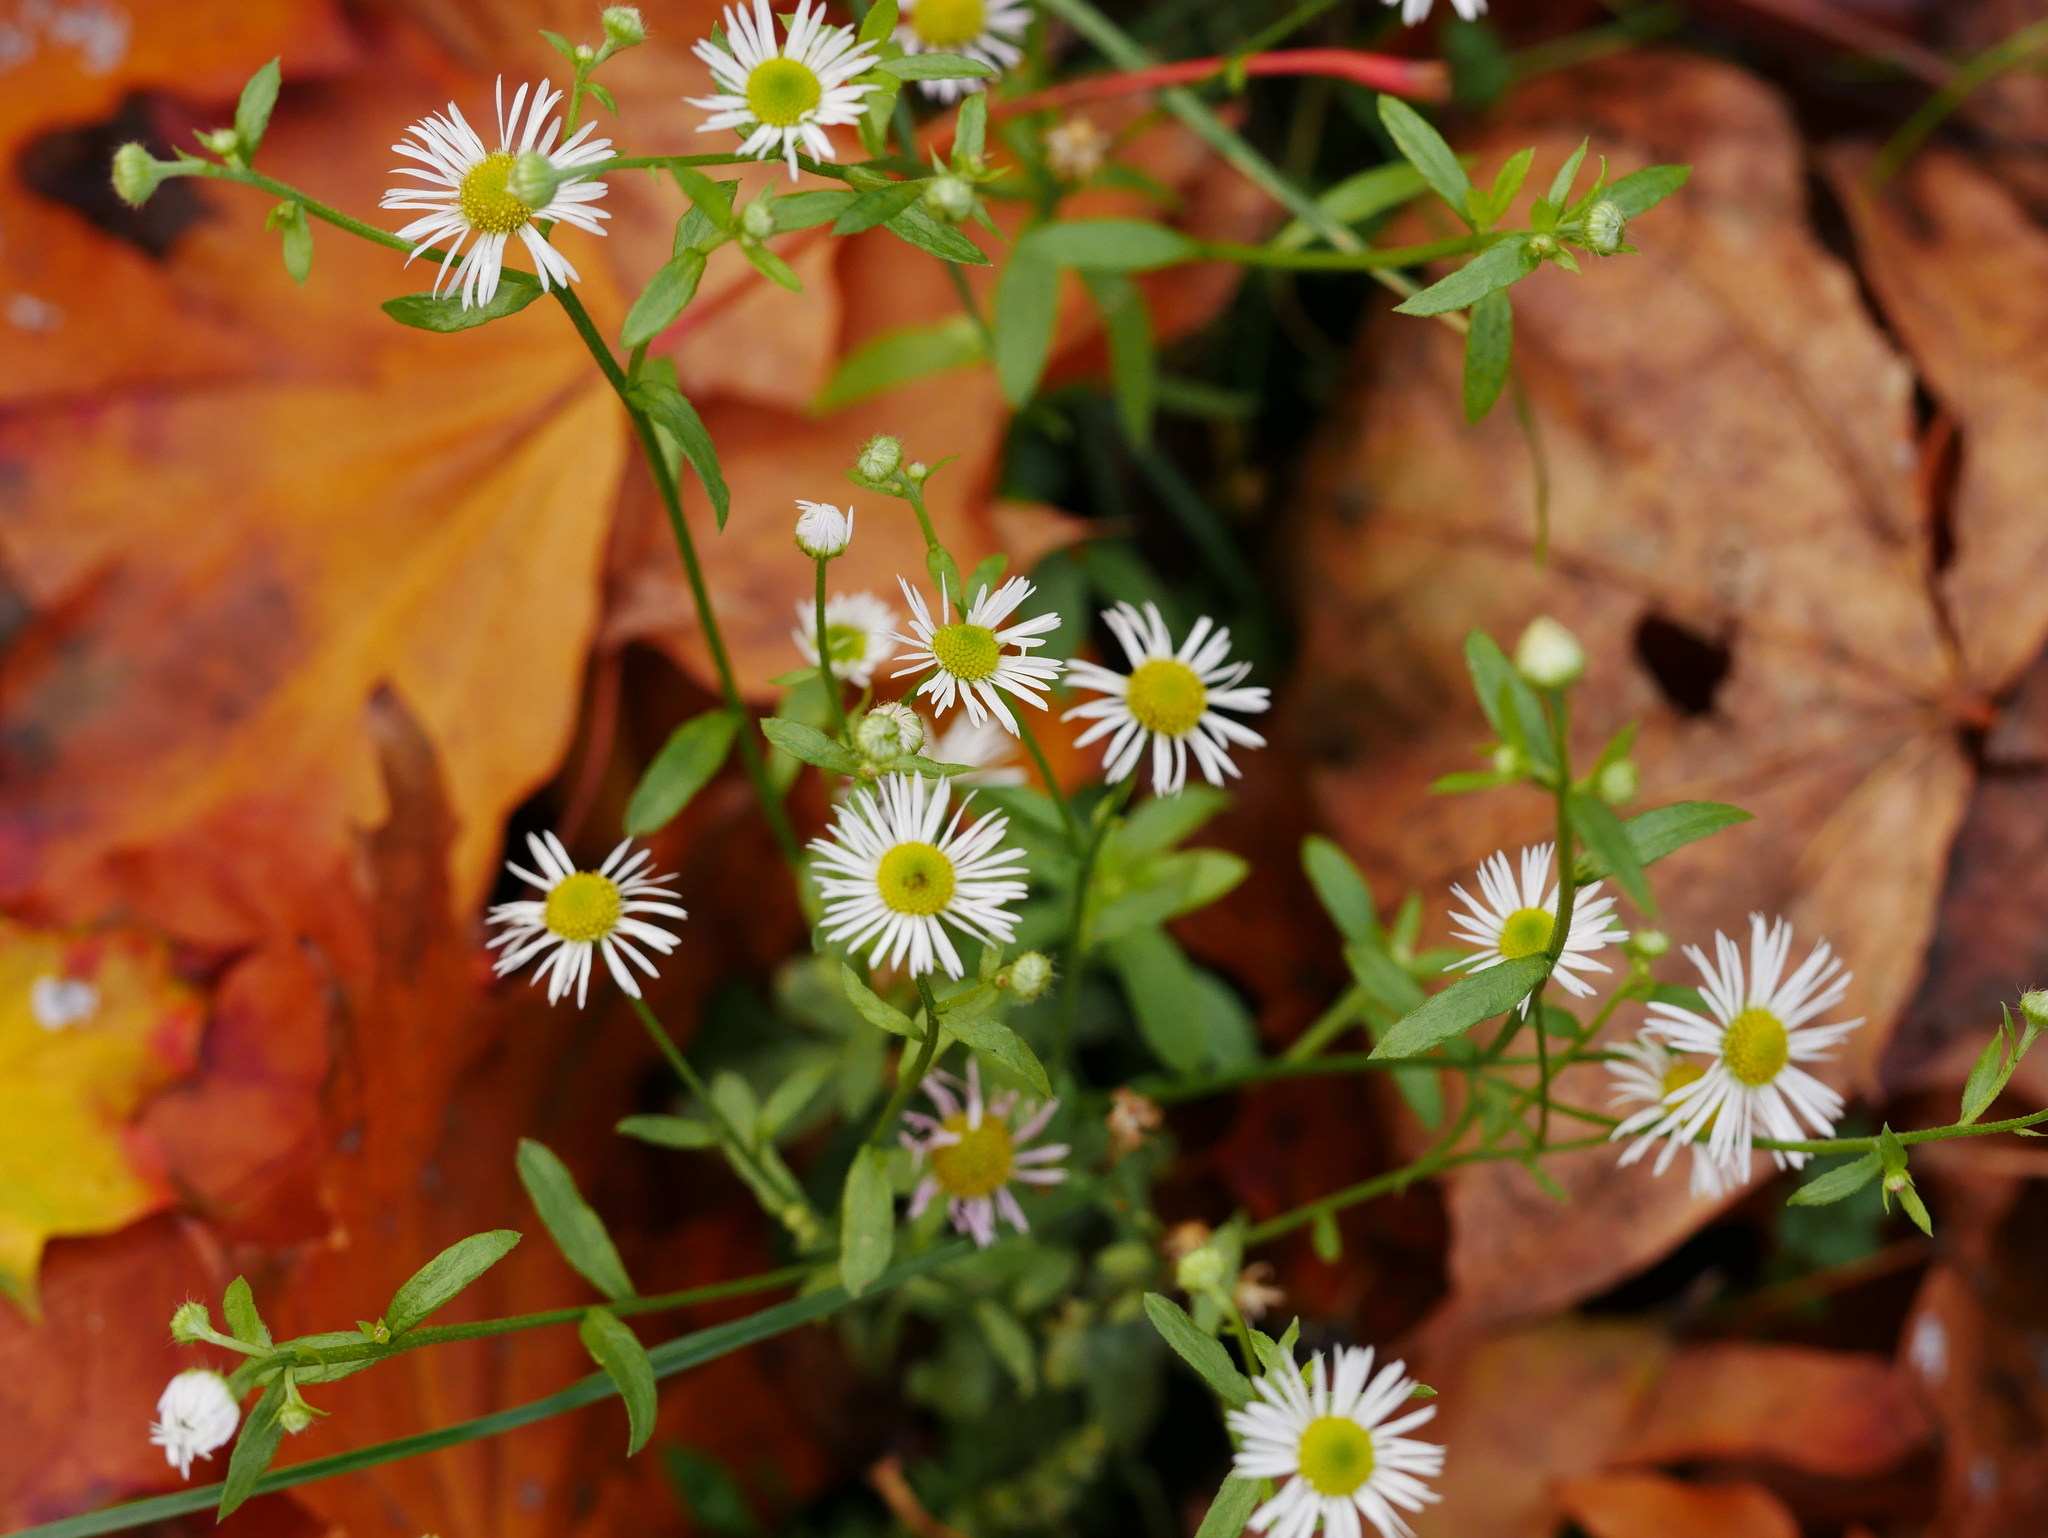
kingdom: Plantae
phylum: Tracheophyta
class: Magnoliopsida
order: Asterales
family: Asteraceae
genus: Erigeron
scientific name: Erigeron annuus
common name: Tall fleabane
